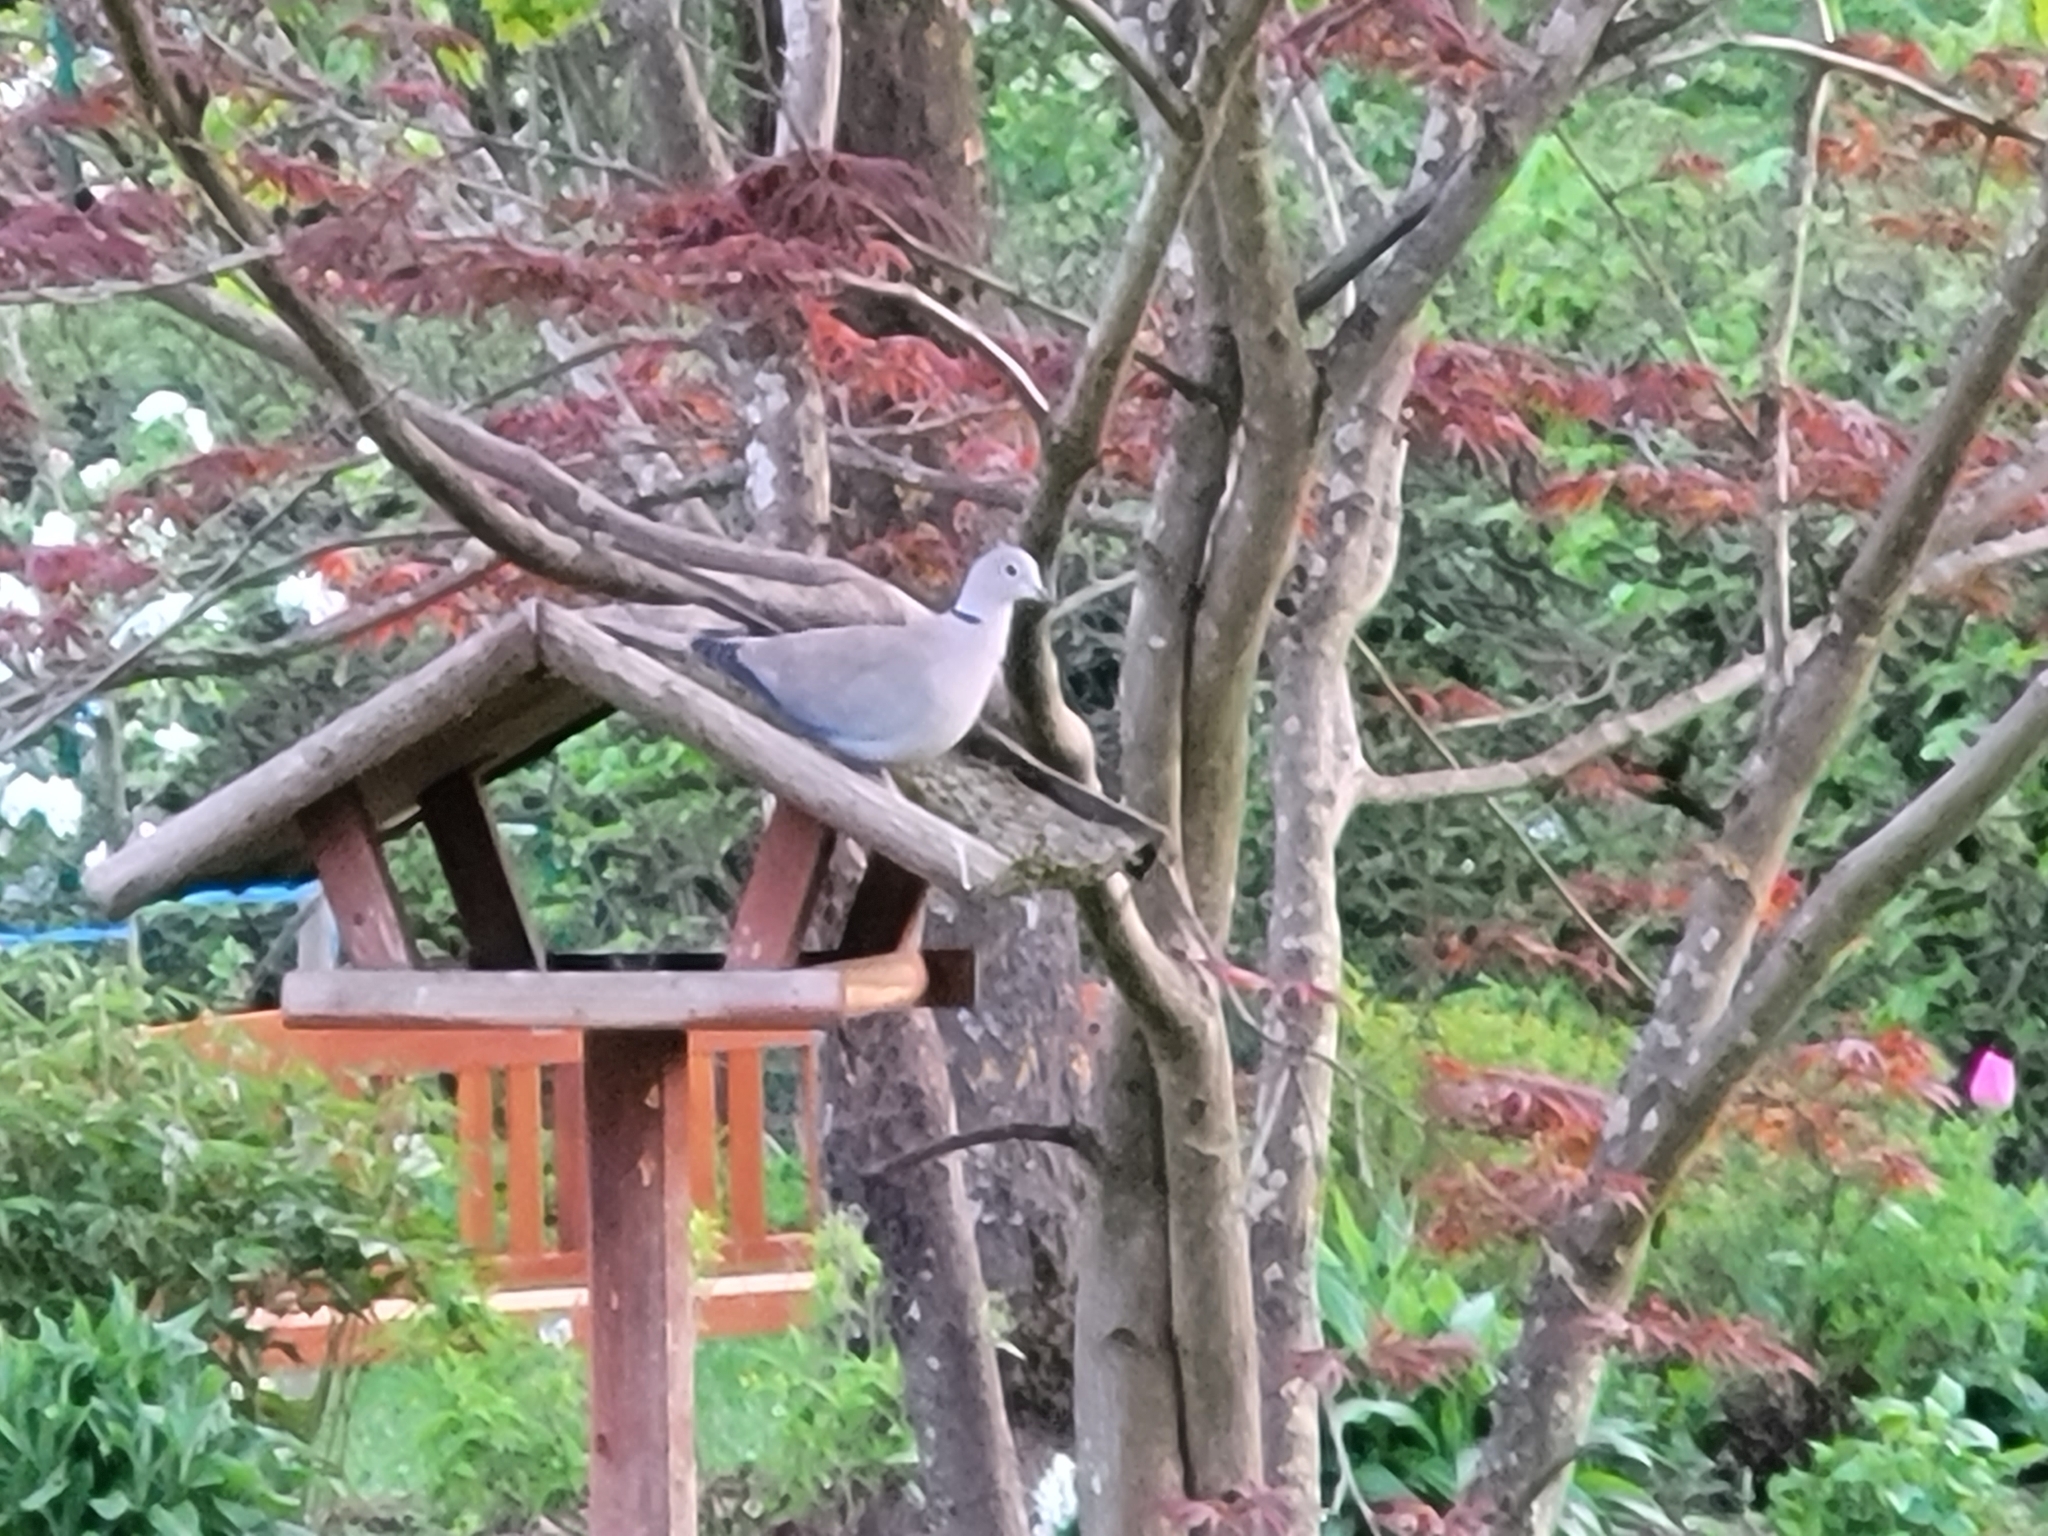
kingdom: Animalia
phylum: Chordata
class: Aves
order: Columbiformes
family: Columbidae
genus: Streptopelia
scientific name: Streptopelia decaocto
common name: Eurasian collared dove
